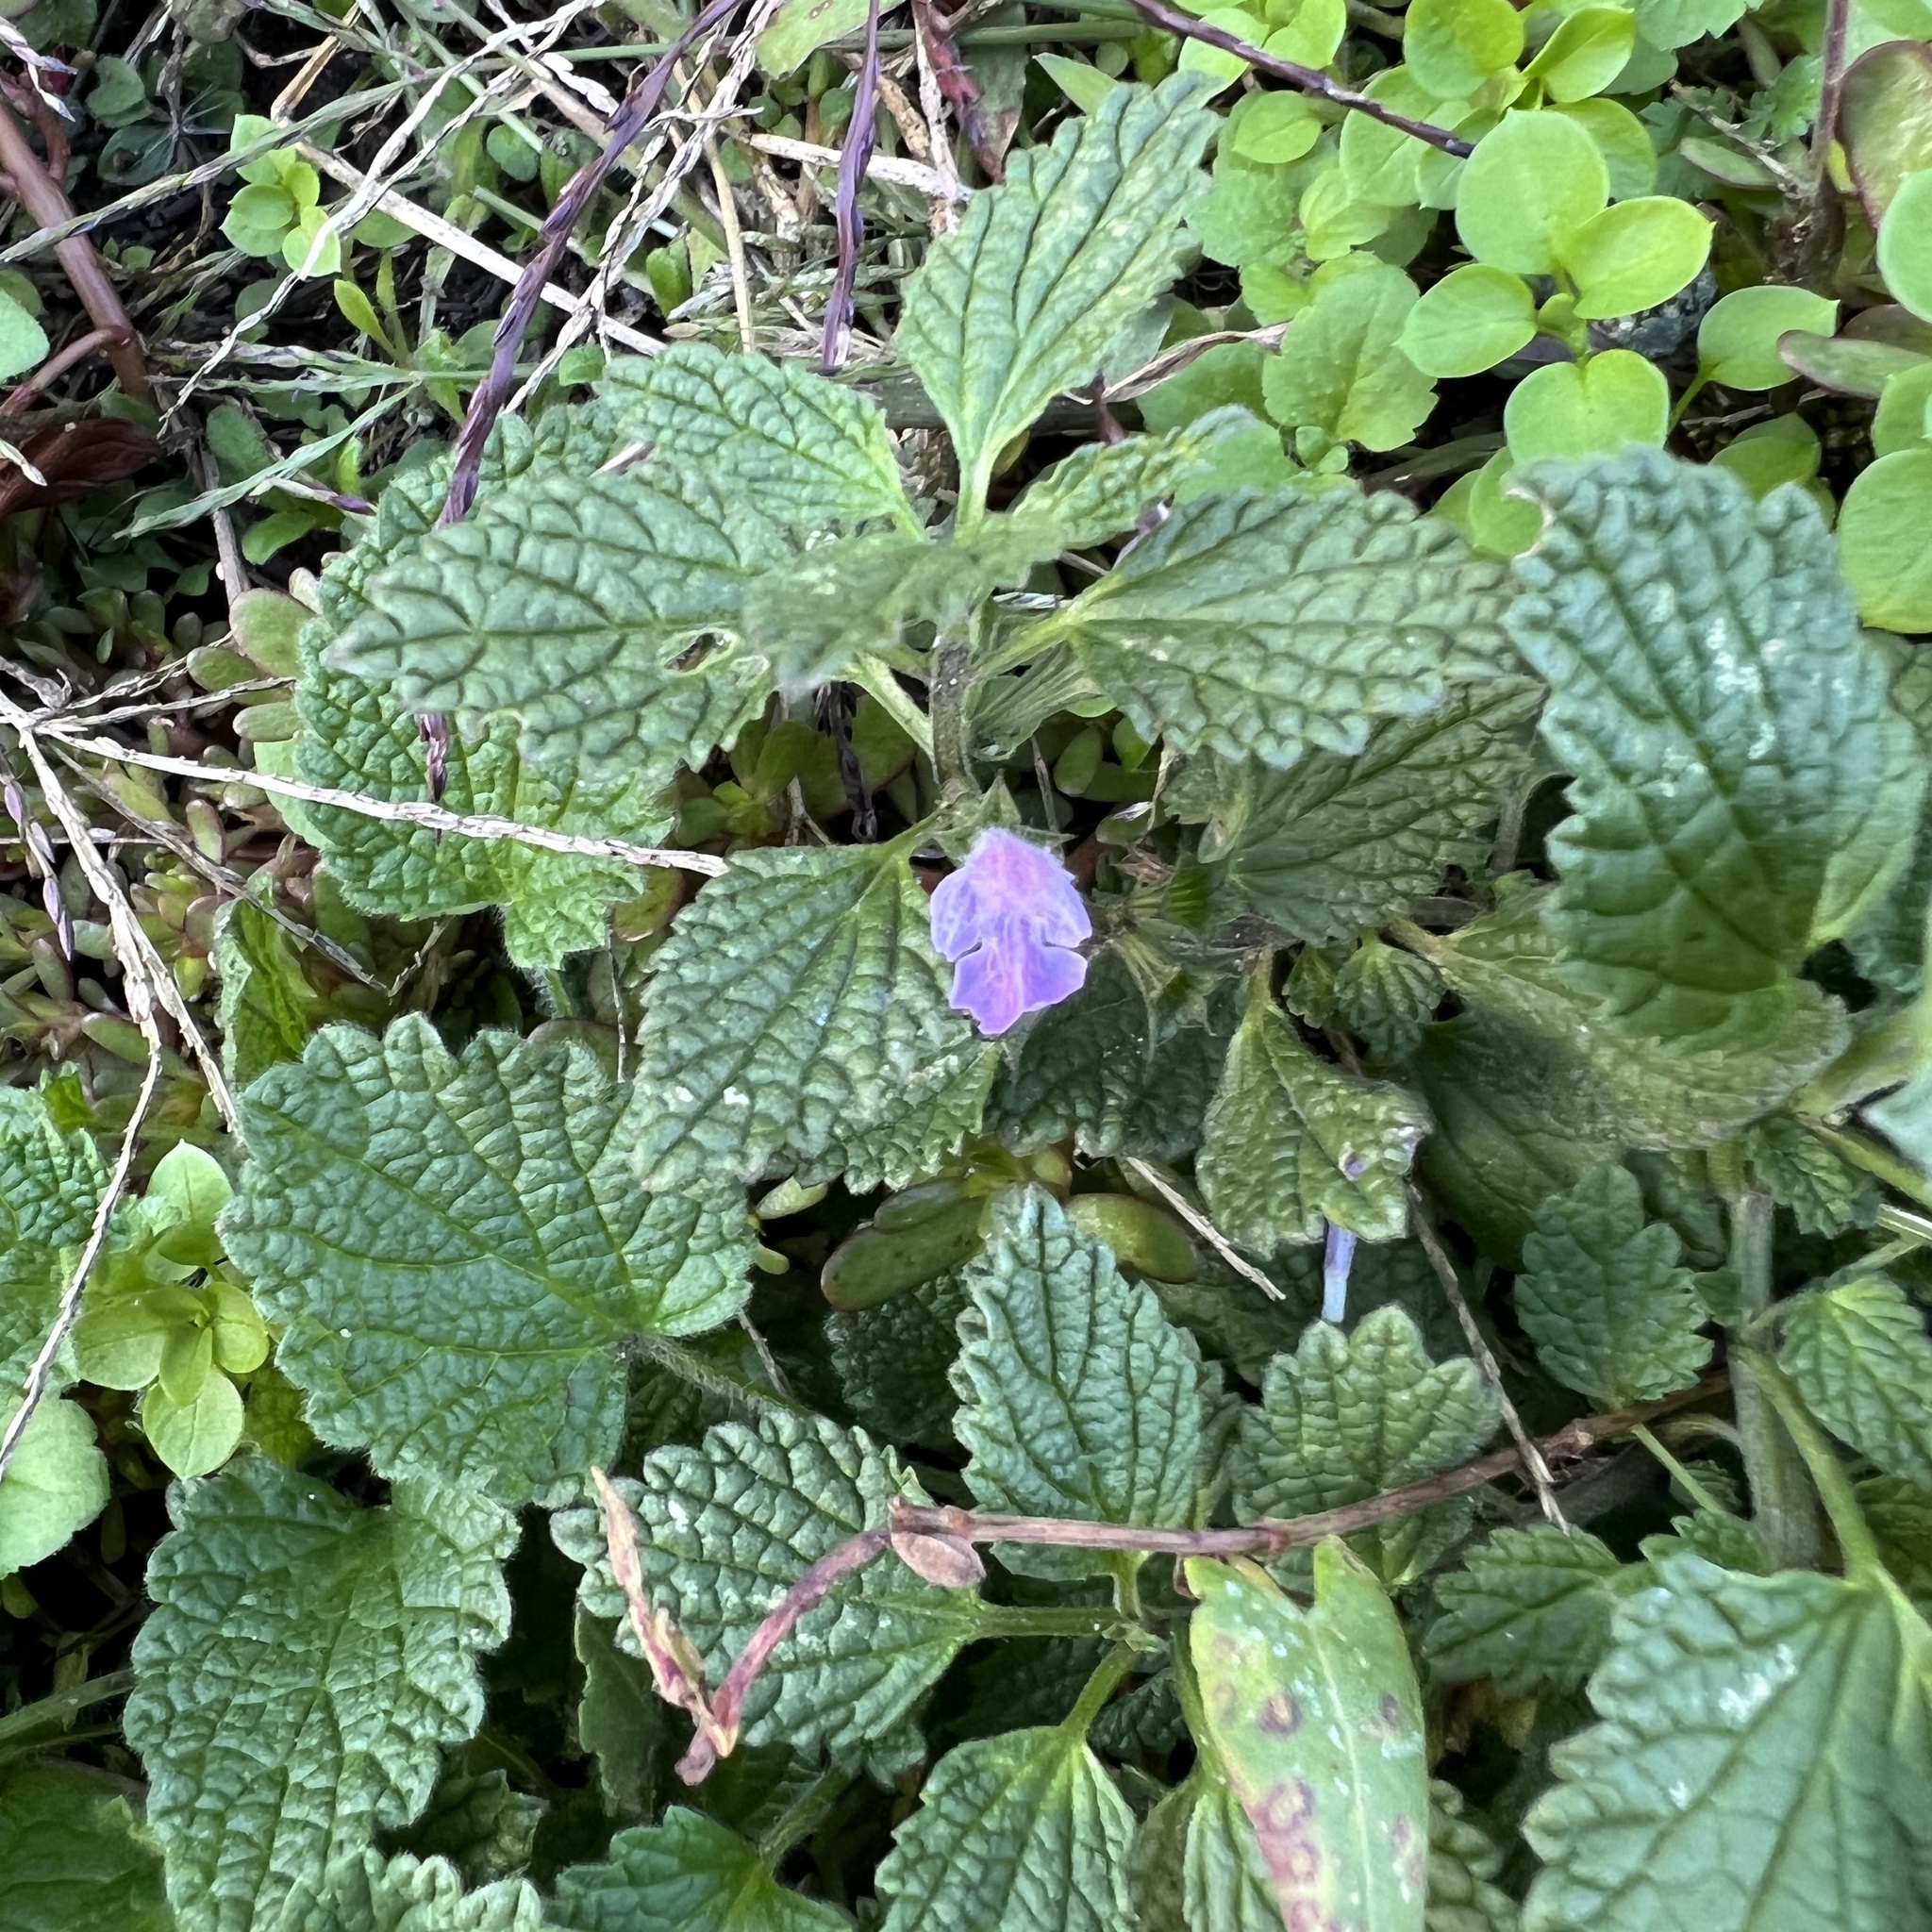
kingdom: Plantae
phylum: Tracheophyta
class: Magnoliopsida
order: Lamiales
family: Lamiaceae
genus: Ballota
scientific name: Ballota nigra
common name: Black horehound
